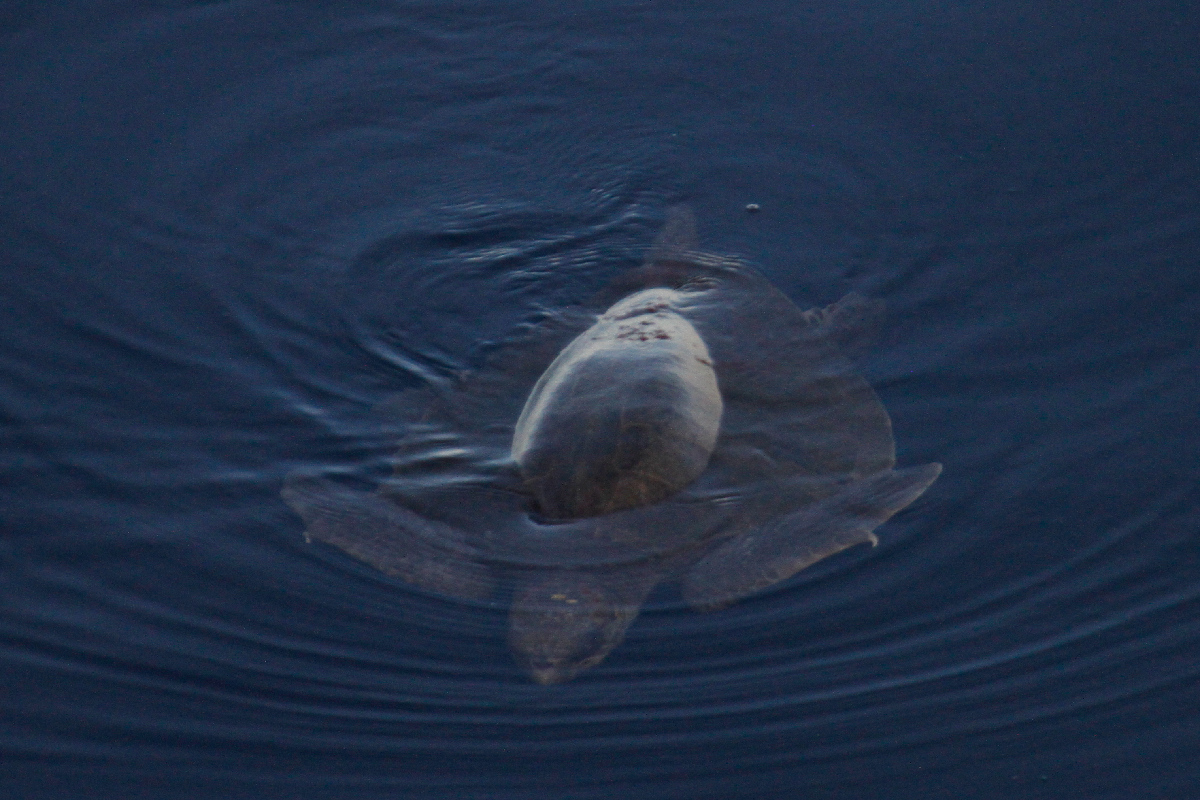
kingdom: Animalia
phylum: Chordata
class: Testudines
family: Cheloniidae
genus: Lepidochelys
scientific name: Lepidochelys olivacea
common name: Olive ridley
